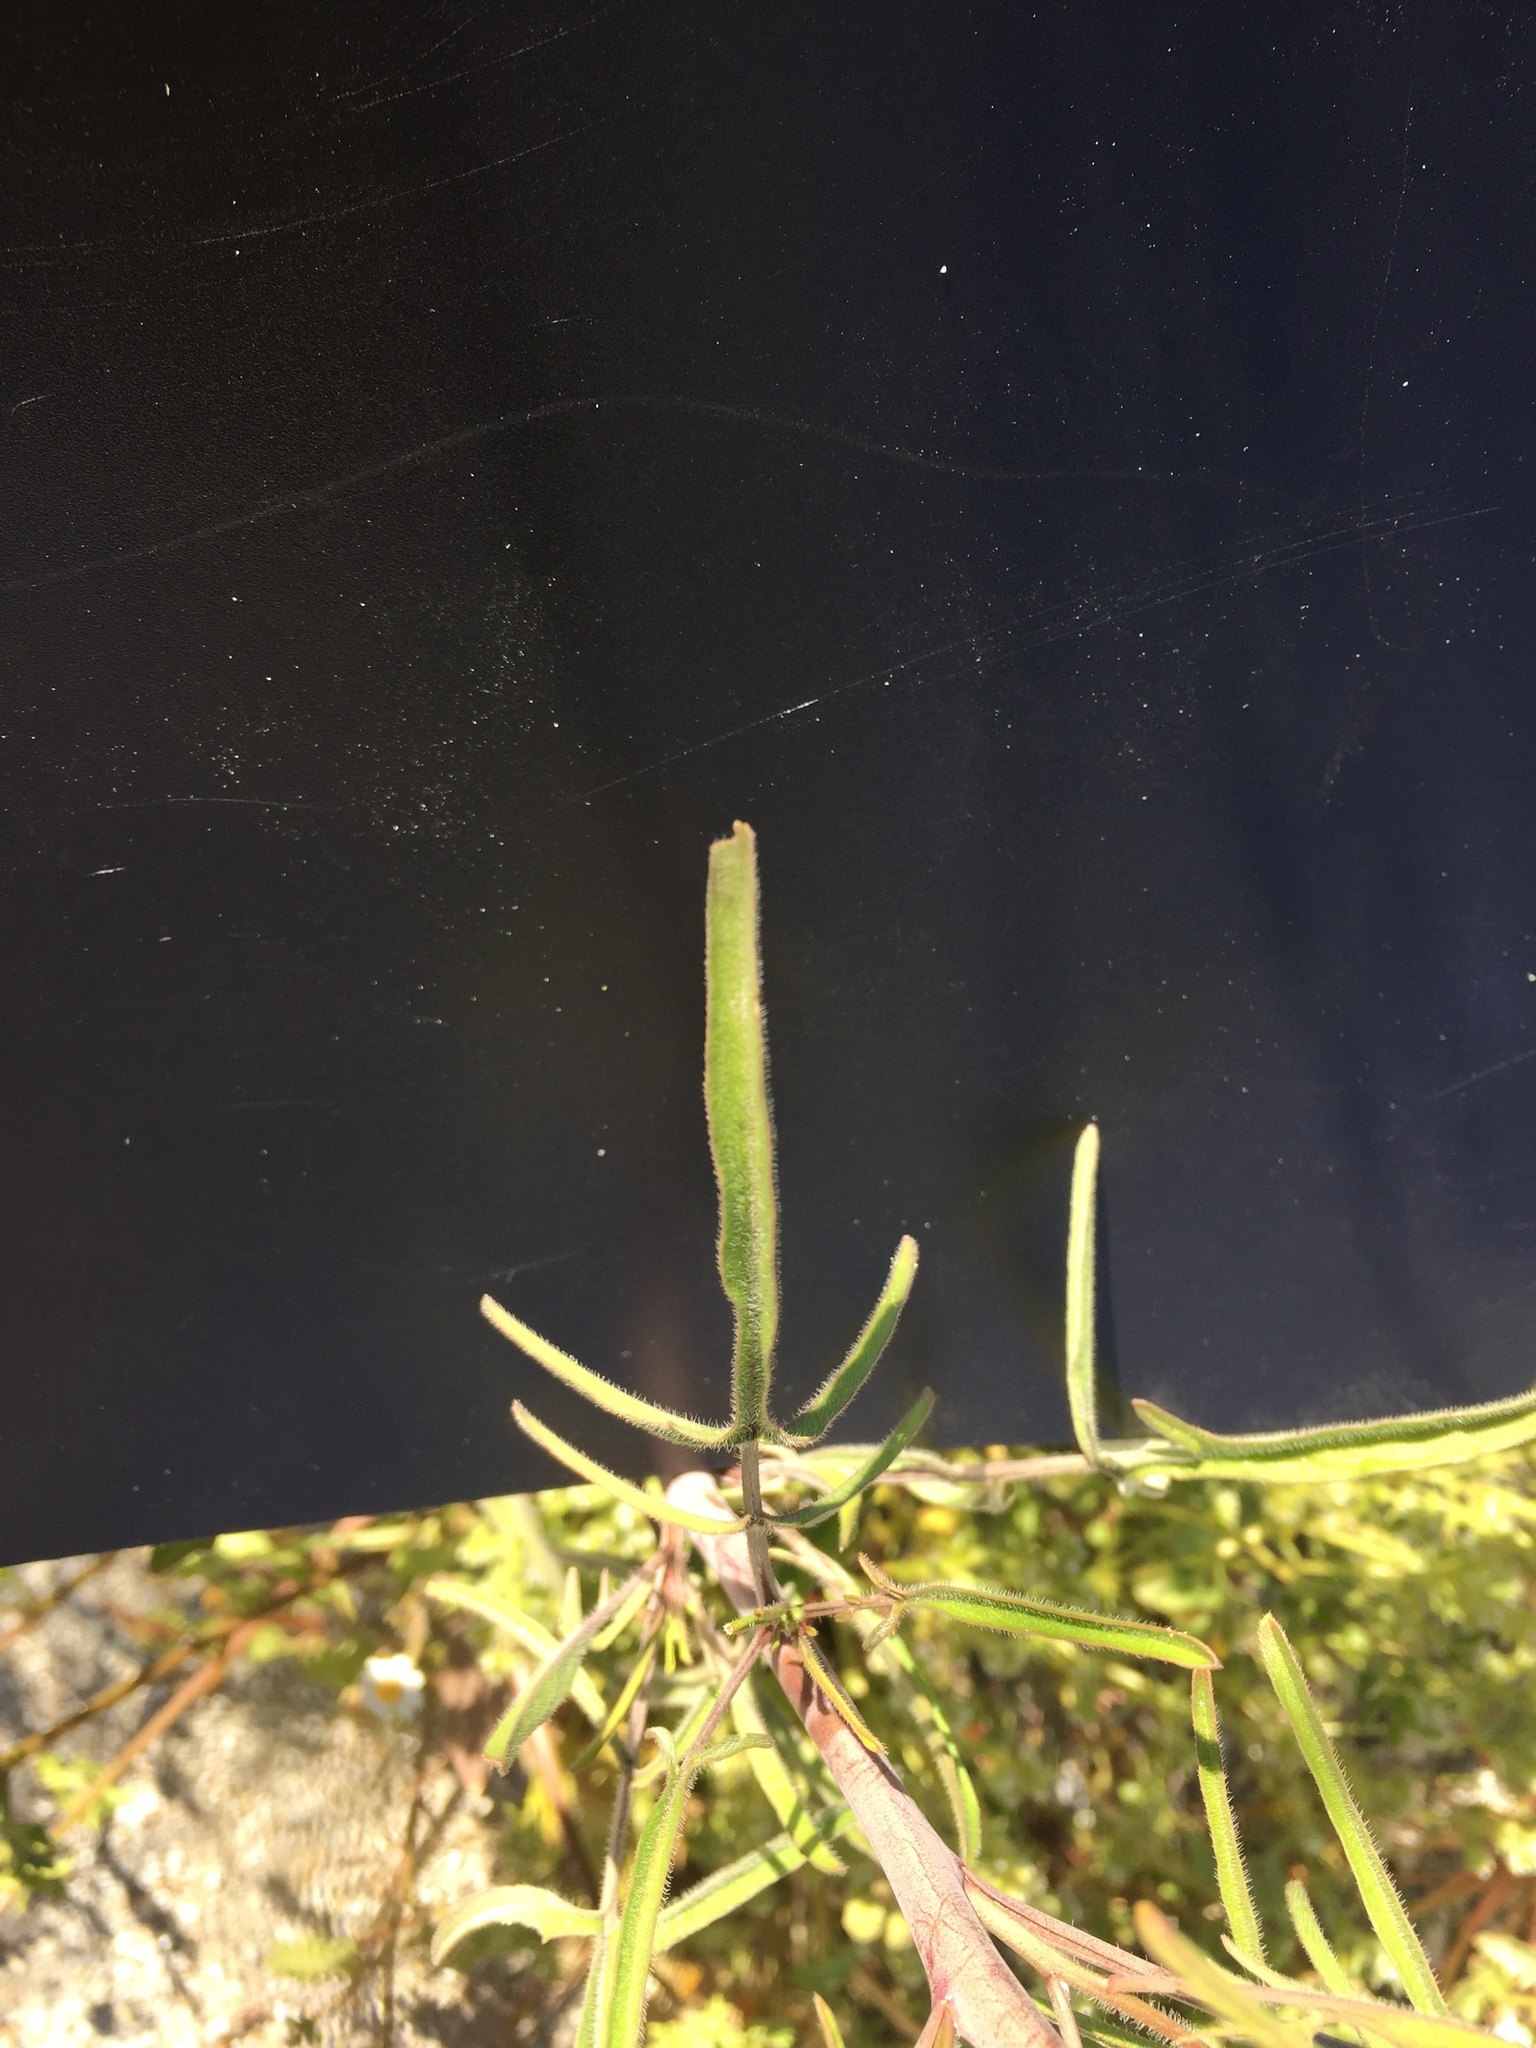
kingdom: Plantae
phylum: Tracheophyta
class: Magnoliopsida
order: Brassicales
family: Brassicaceae
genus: Sisymbrium
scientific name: Sisymbrium orientale
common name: Eastern rocket
